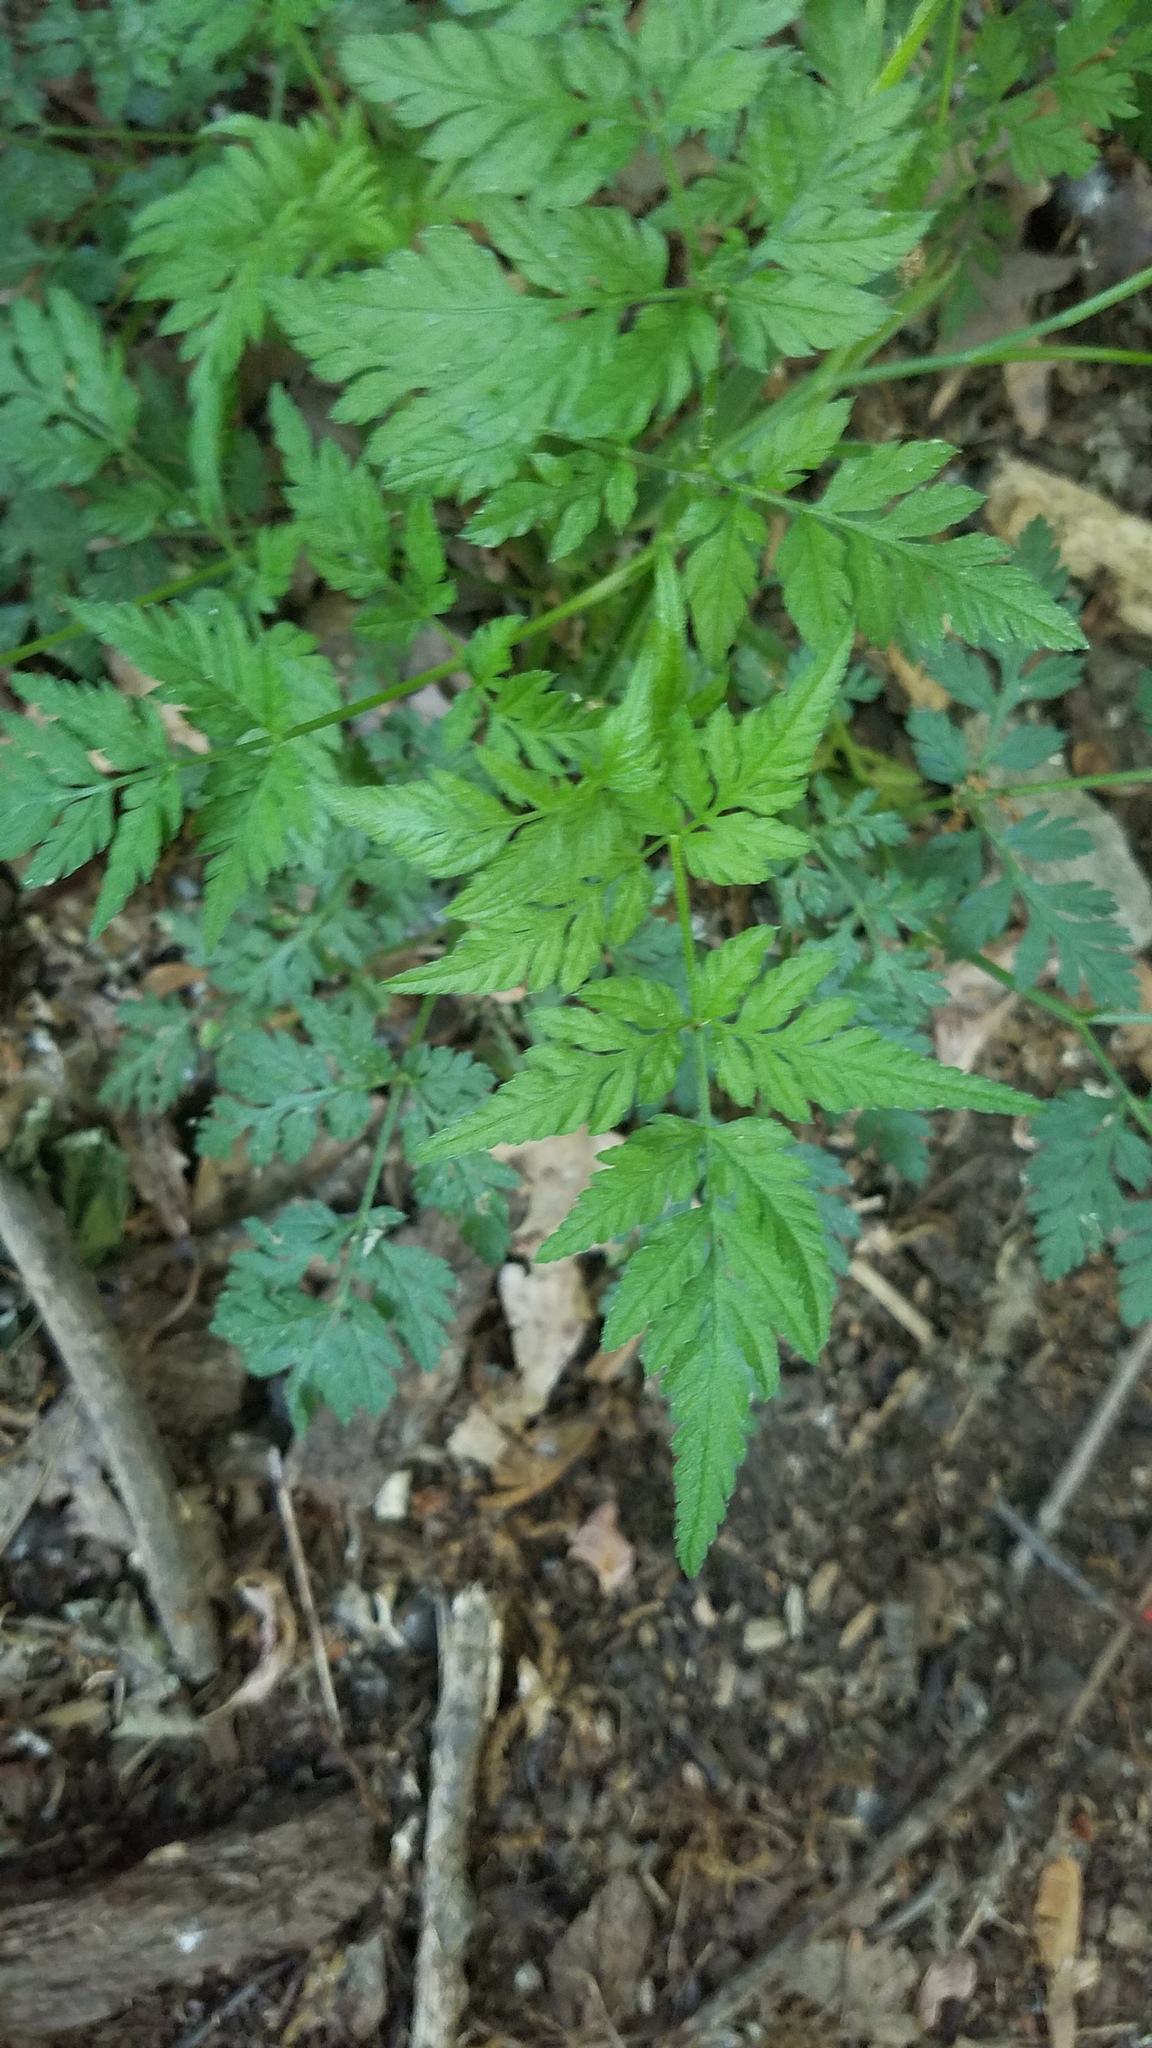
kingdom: Plantae
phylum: Tracheophyta
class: Magnoliopsida
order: Apiales
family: Apiaceae
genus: Torilis
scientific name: Torilis japonica
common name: Upright hedge-parsley
